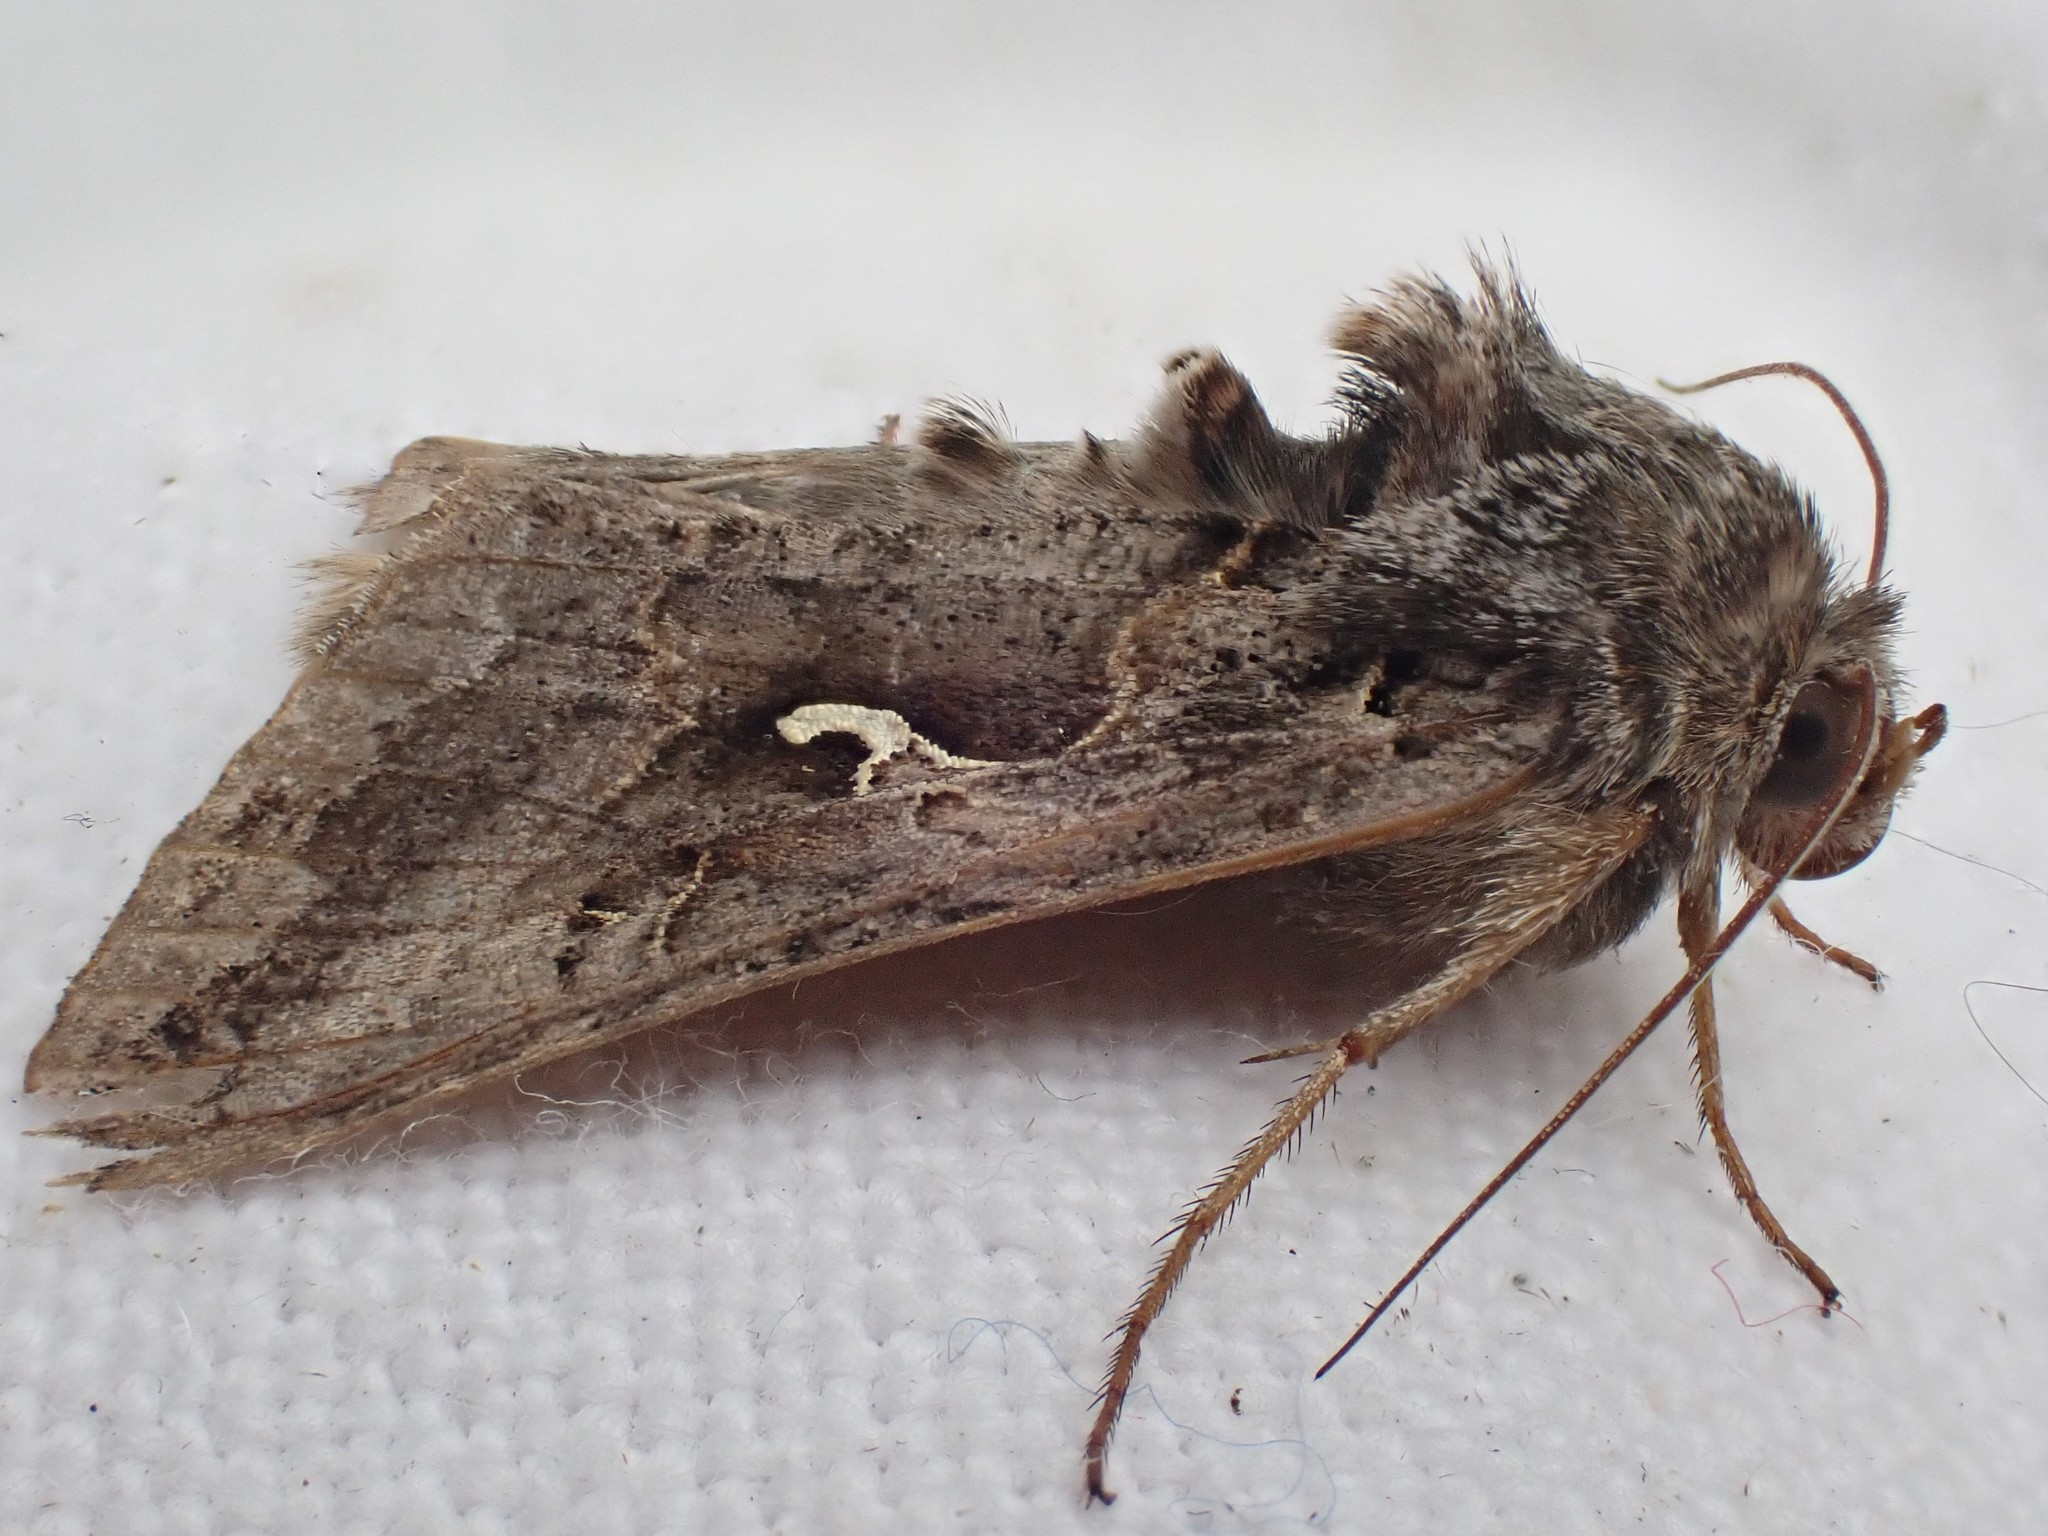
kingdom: Animalia
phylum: Arthropoda
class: Insecta
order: Lepidoptera
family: Noctuidae
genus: Autographa
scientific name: Autographa gamma
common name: Silver y
